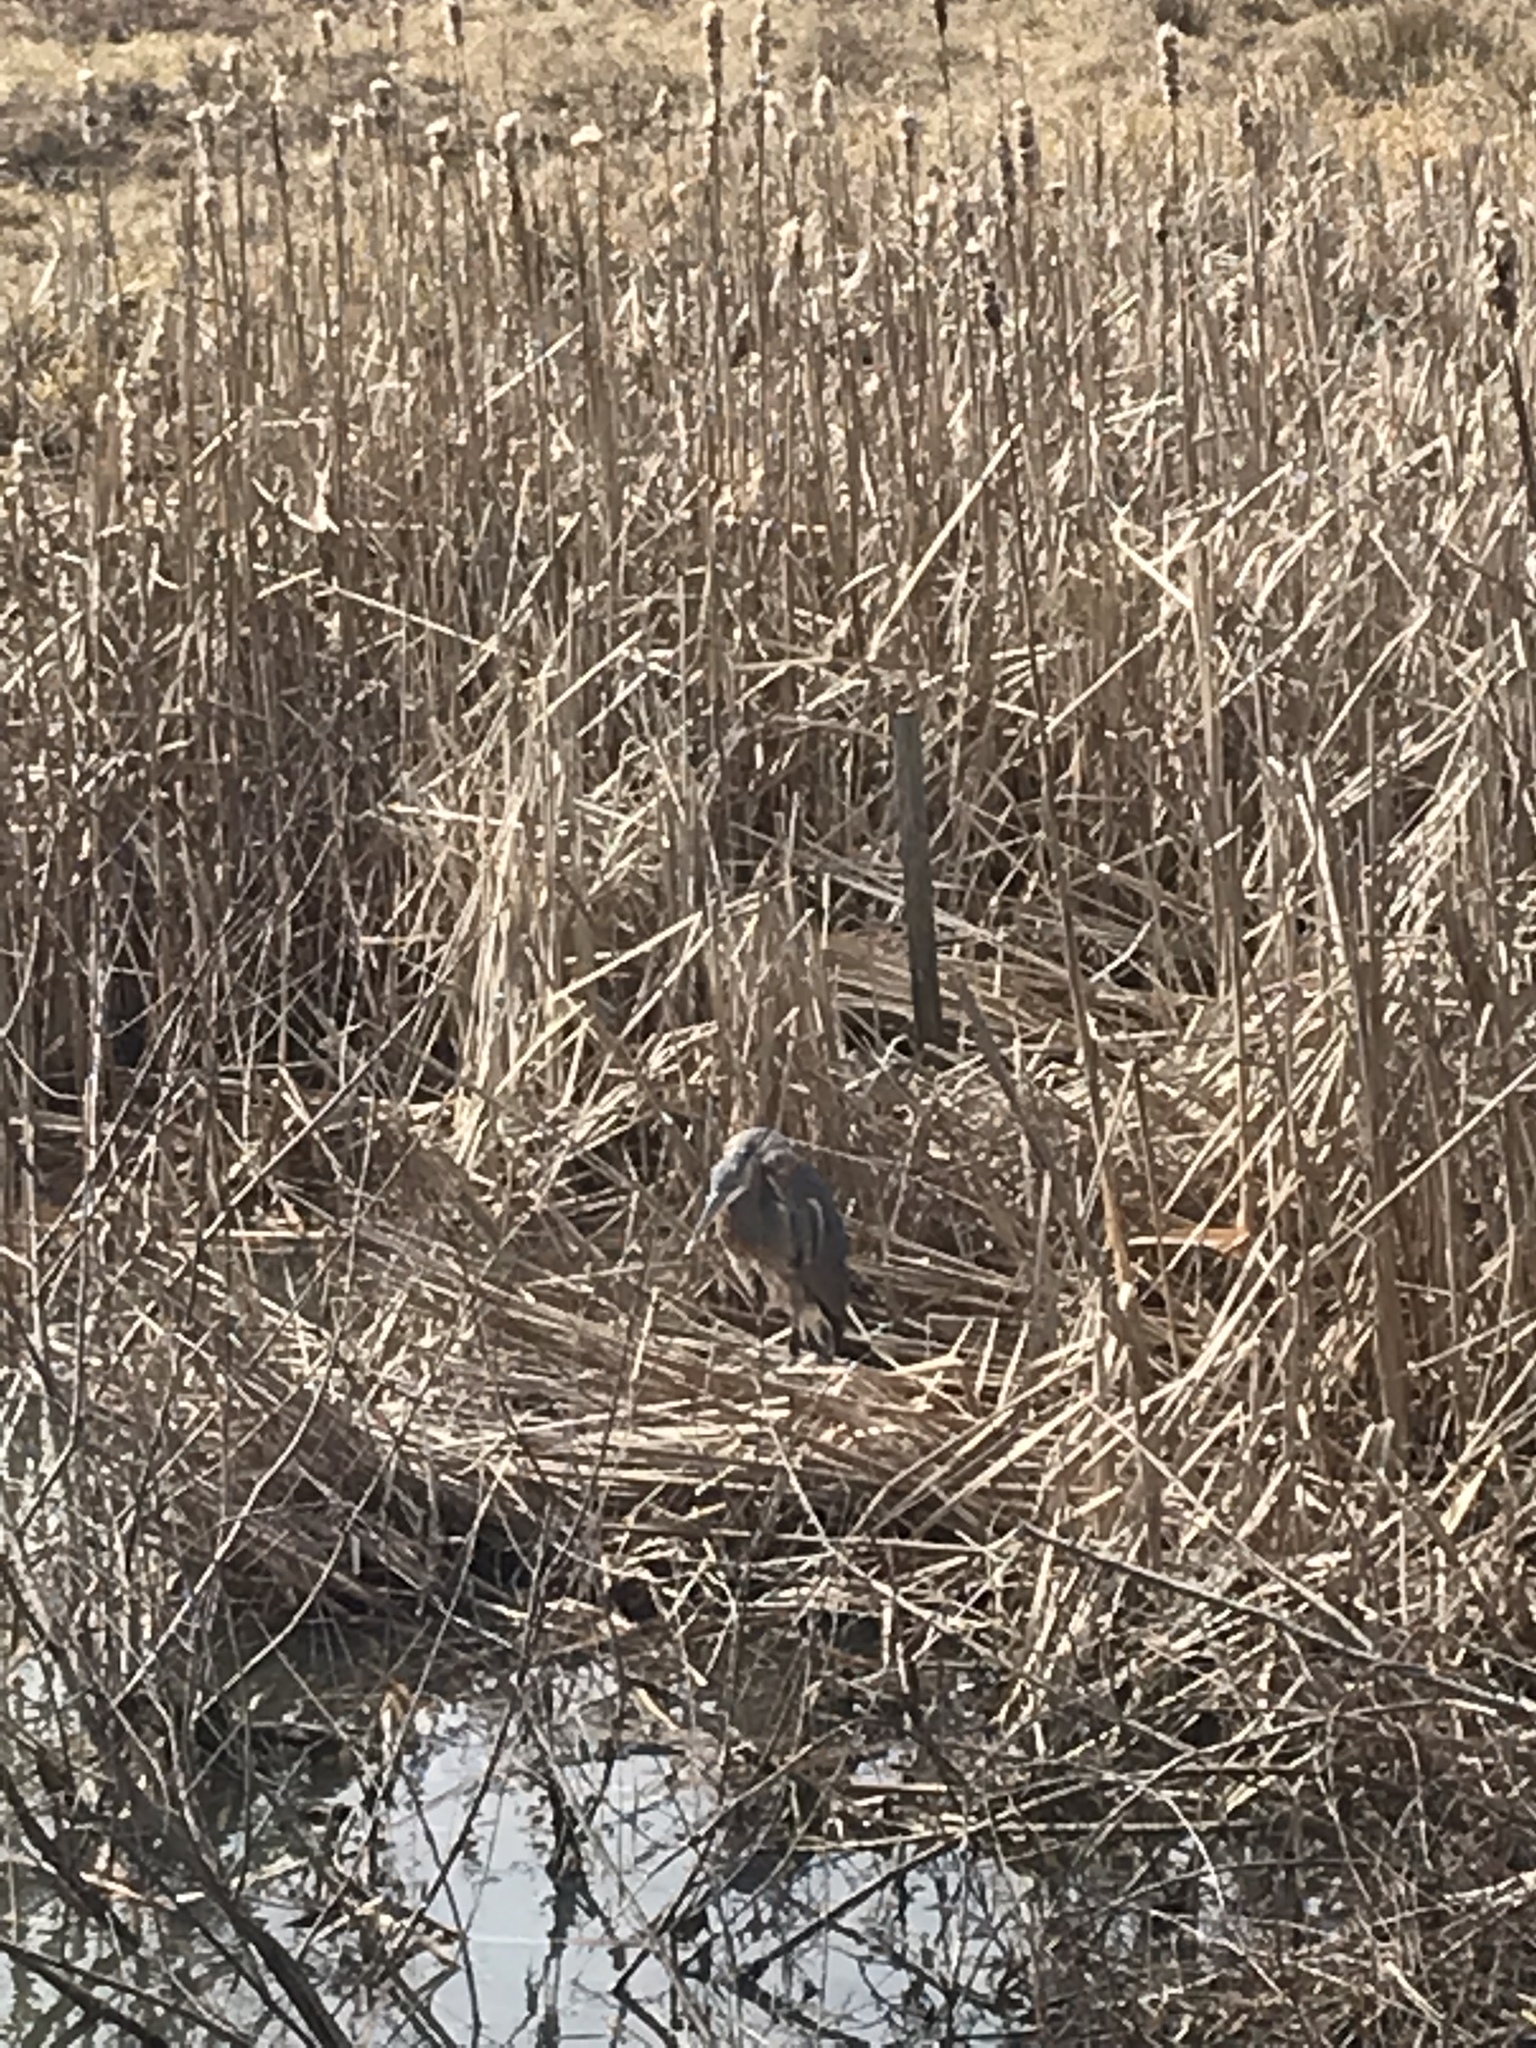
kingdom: Animalia
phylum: Chordata
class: Aves
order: Pelecaniformes
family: Ardeidae
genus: Ardea
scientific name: Ardea herodias
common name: Great blue heron
